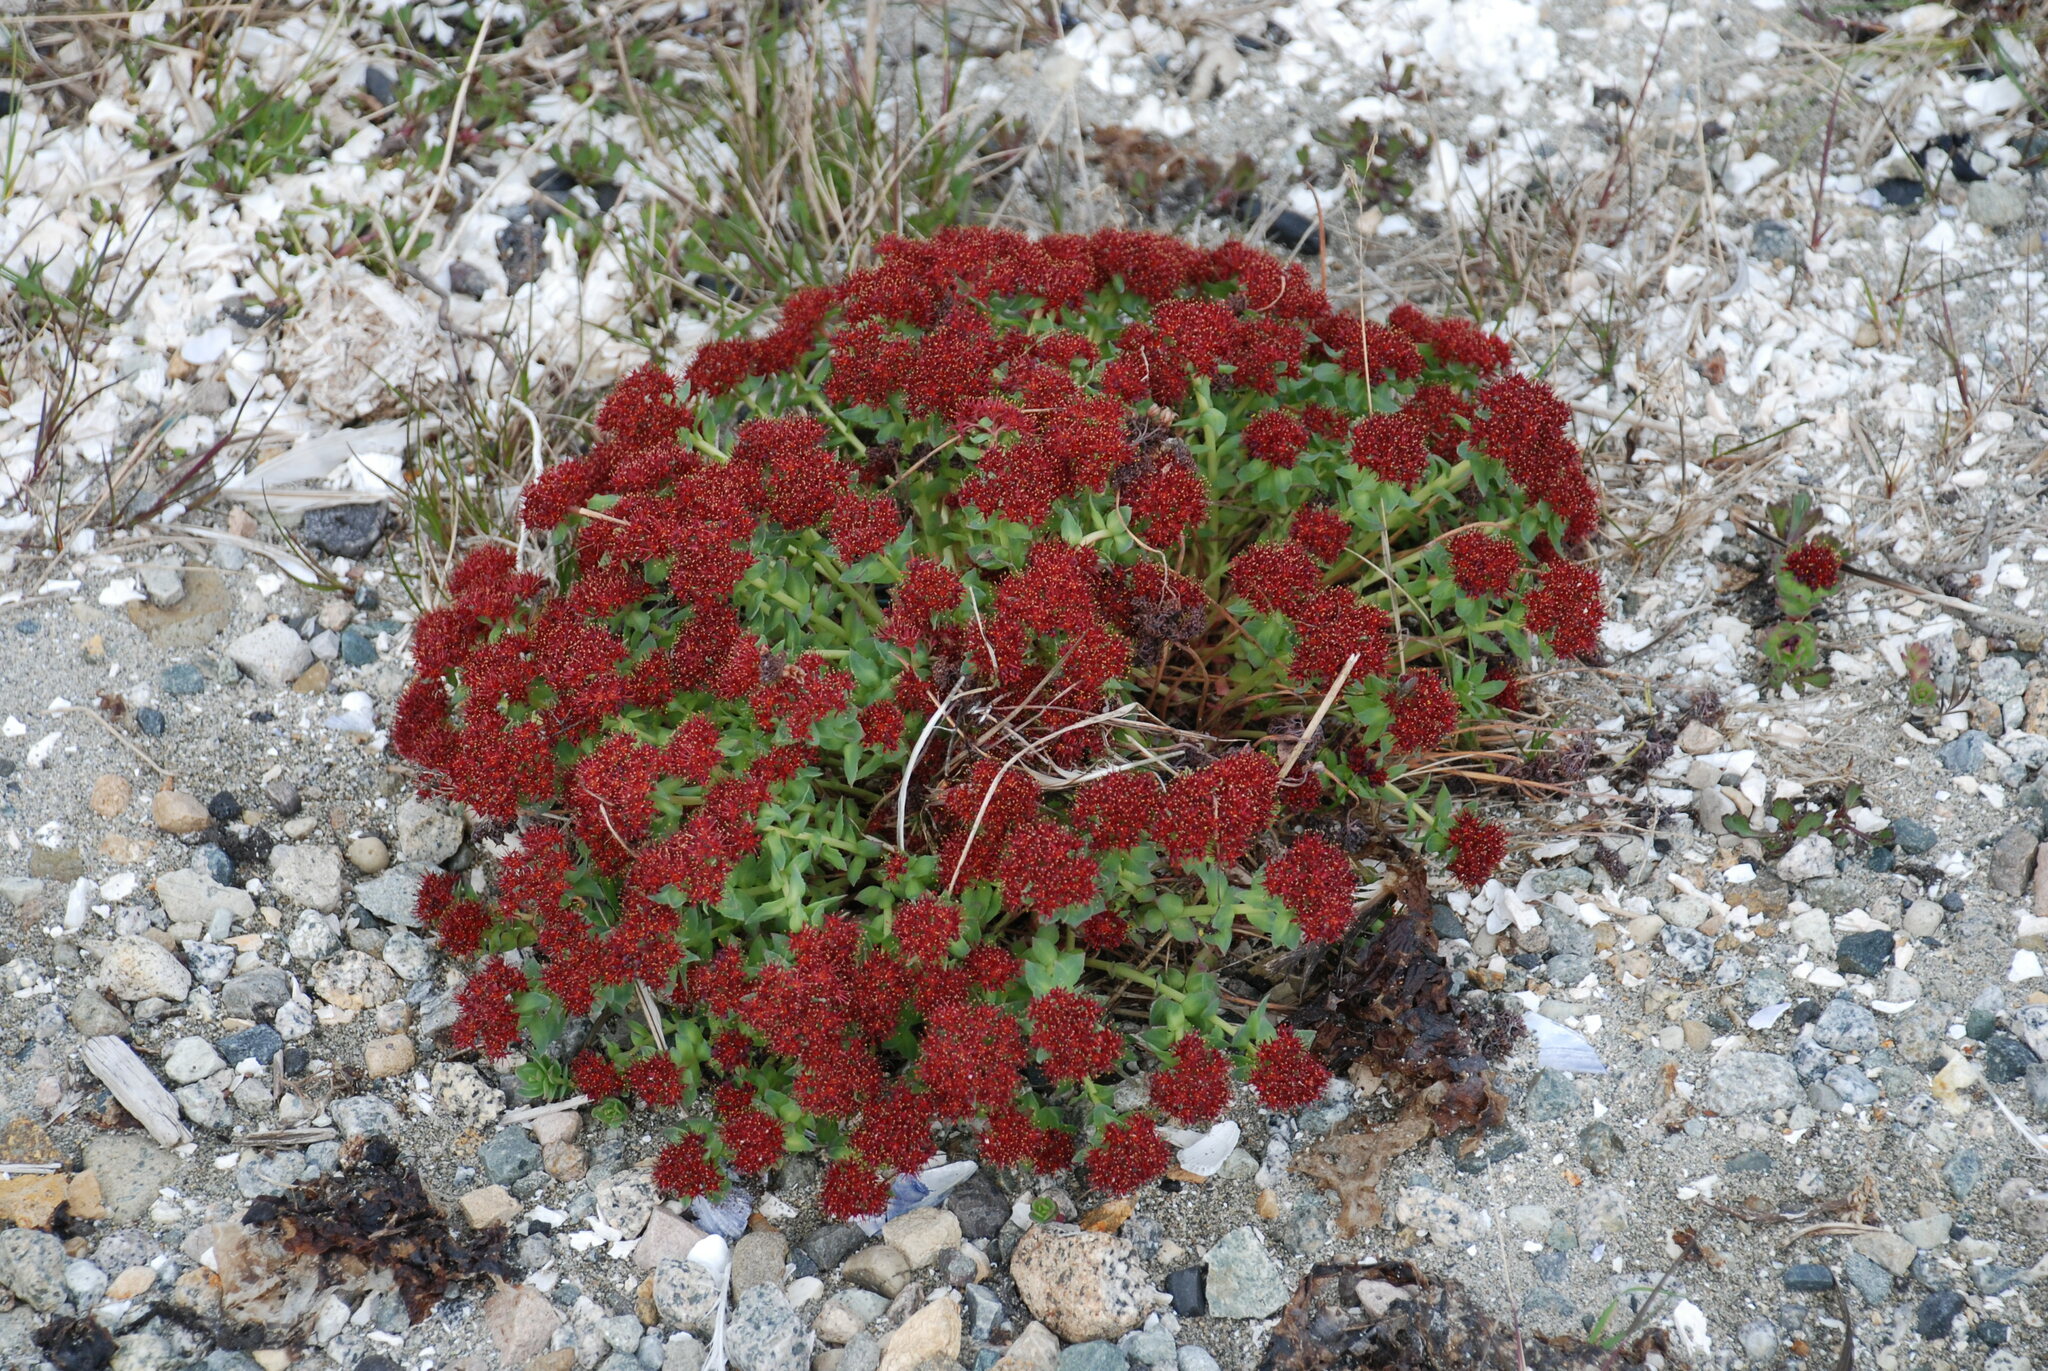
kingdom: Plantae
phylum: Tracheophyta
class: Magnoliopsida
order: Saxifragales
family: Crassulaceae
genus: Rhodiola
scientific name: Rhodiola integrifolia
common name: Western roseroot
